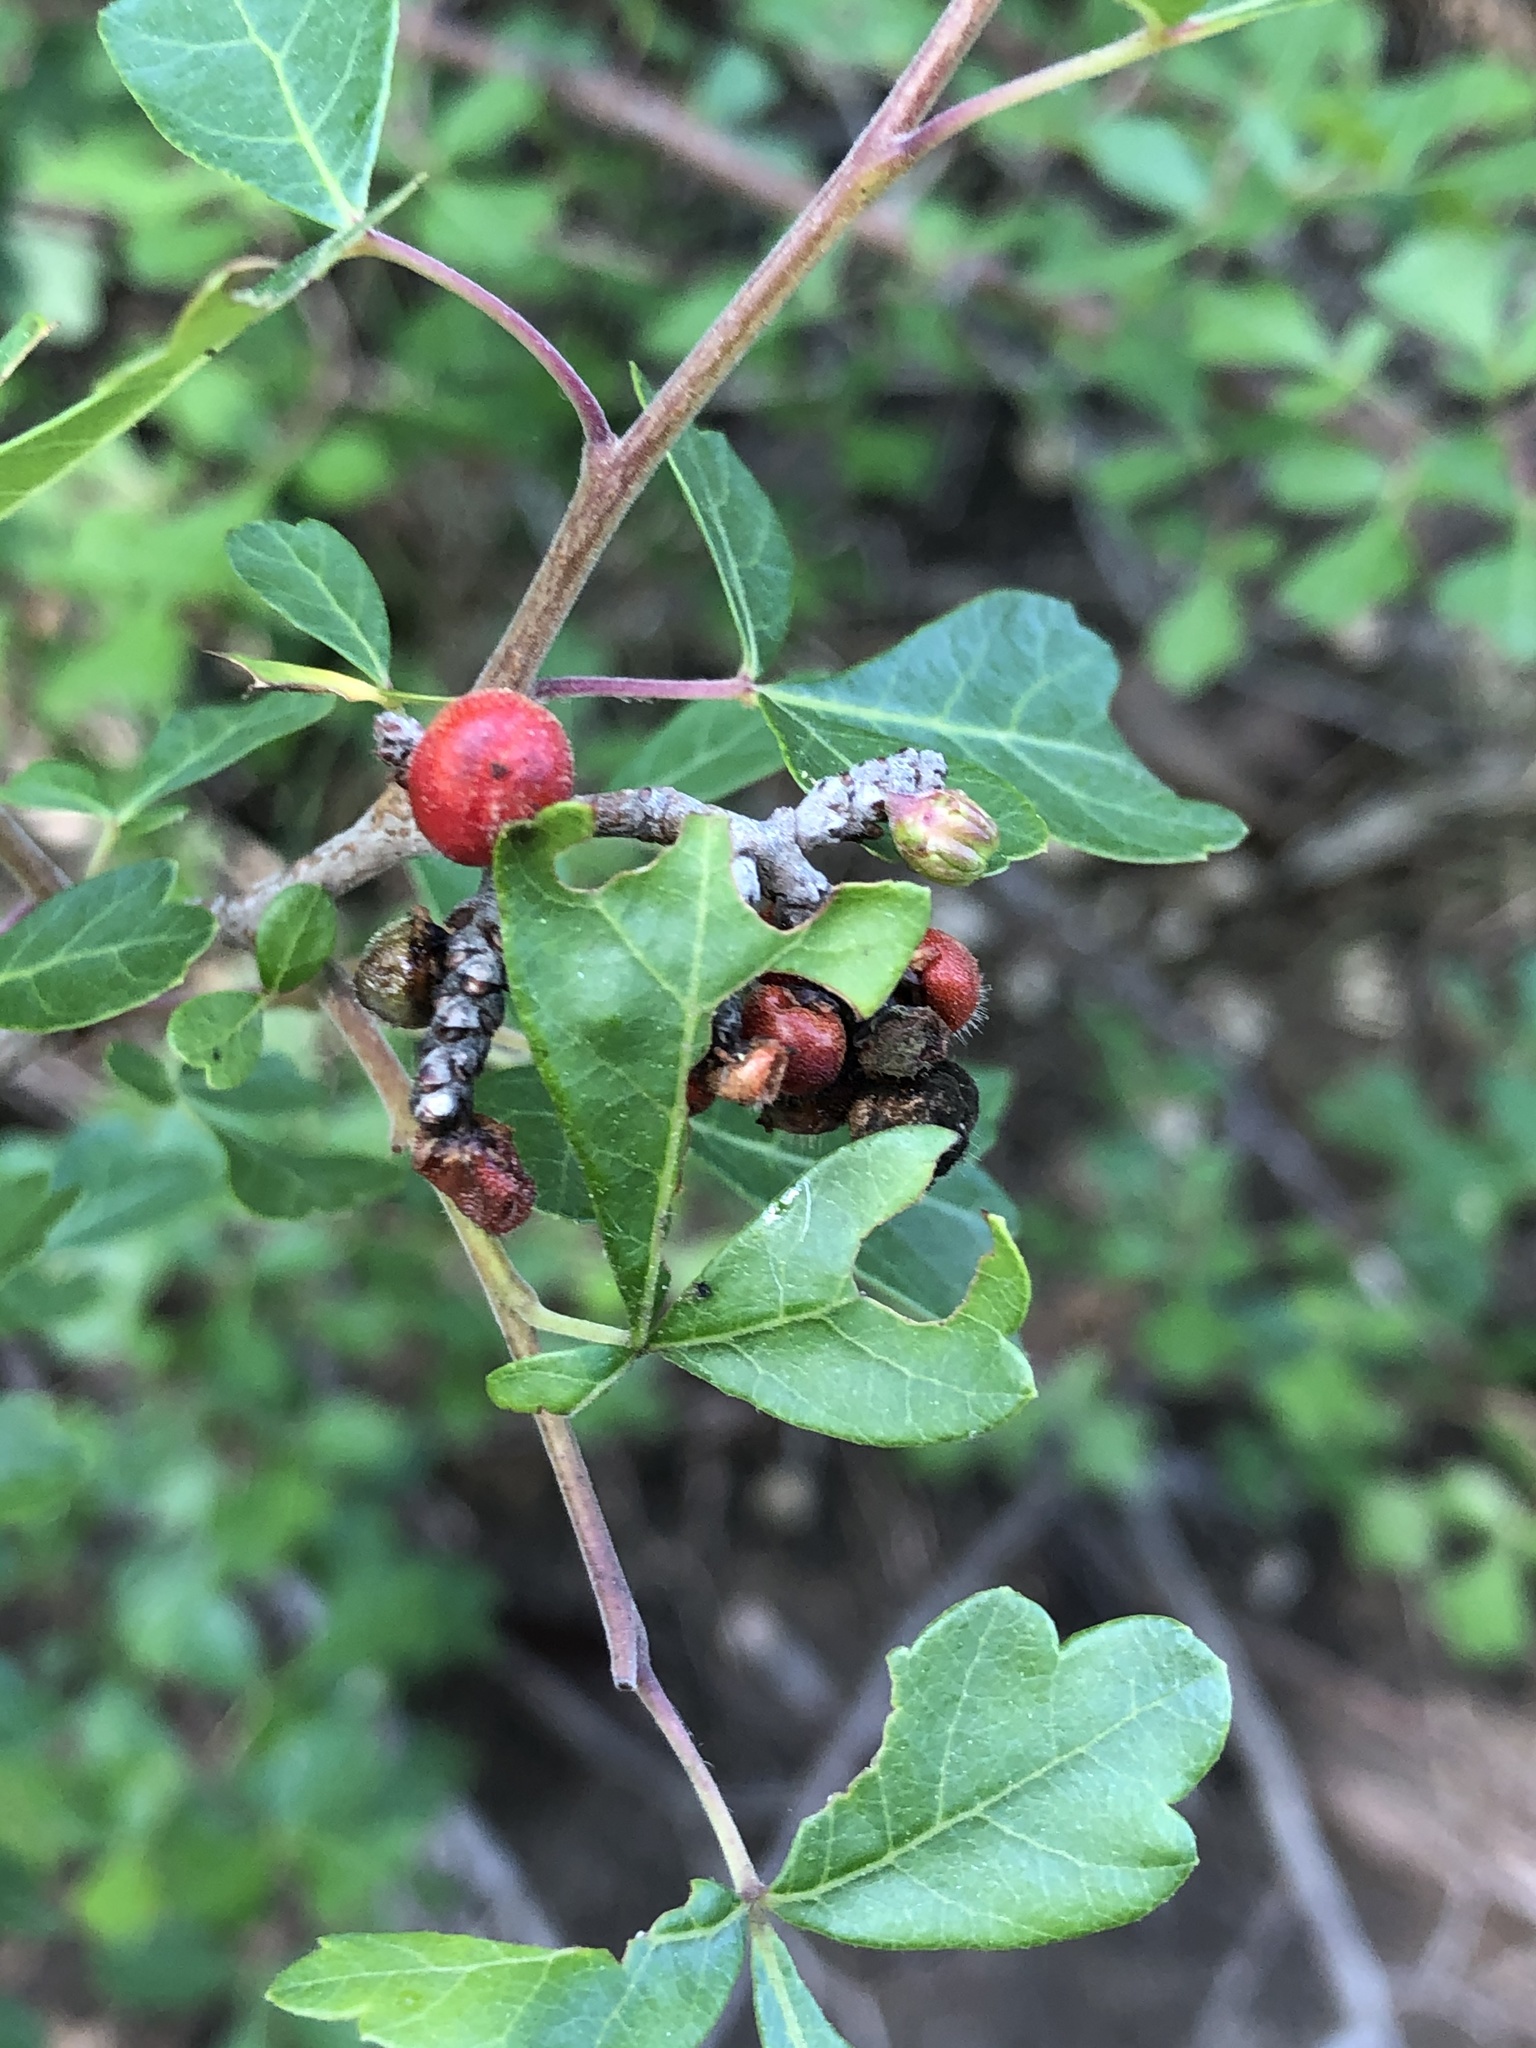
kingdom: Plantae
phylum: Tracheophyta
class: Magnoliopsida
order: Sapindales
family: Anacardiaceae
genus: Rhus
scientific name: Rhus aromatica
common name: Aromatic sumac
